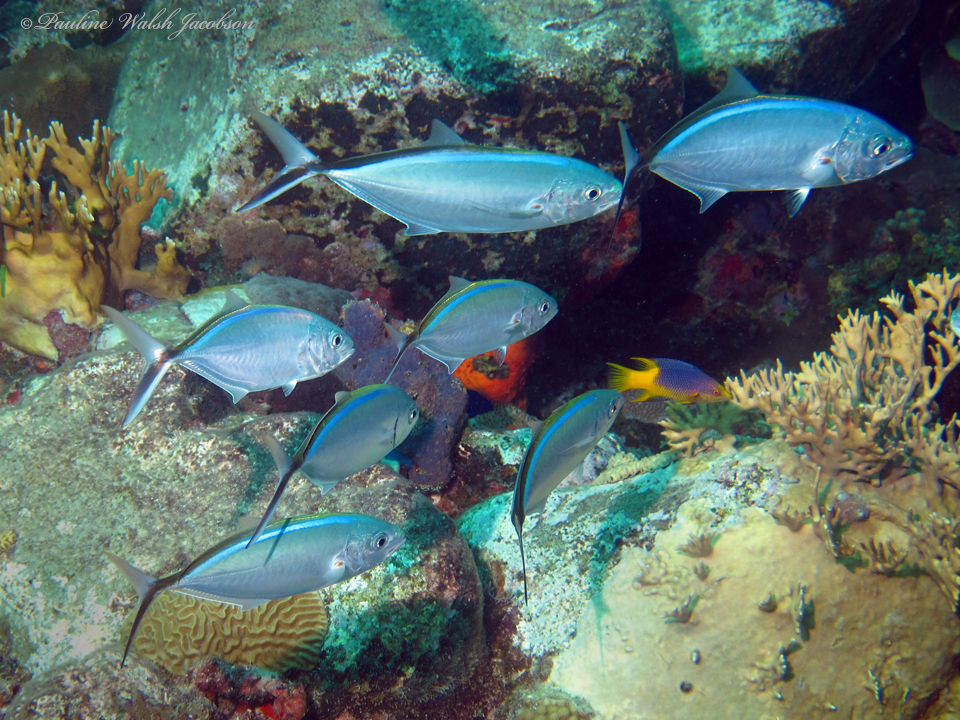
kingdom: Animalia
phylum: Chordata
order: Perciformes
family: Labridae
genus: Bodianus
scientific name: Bodianus rufus
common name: Spanish hogfish
